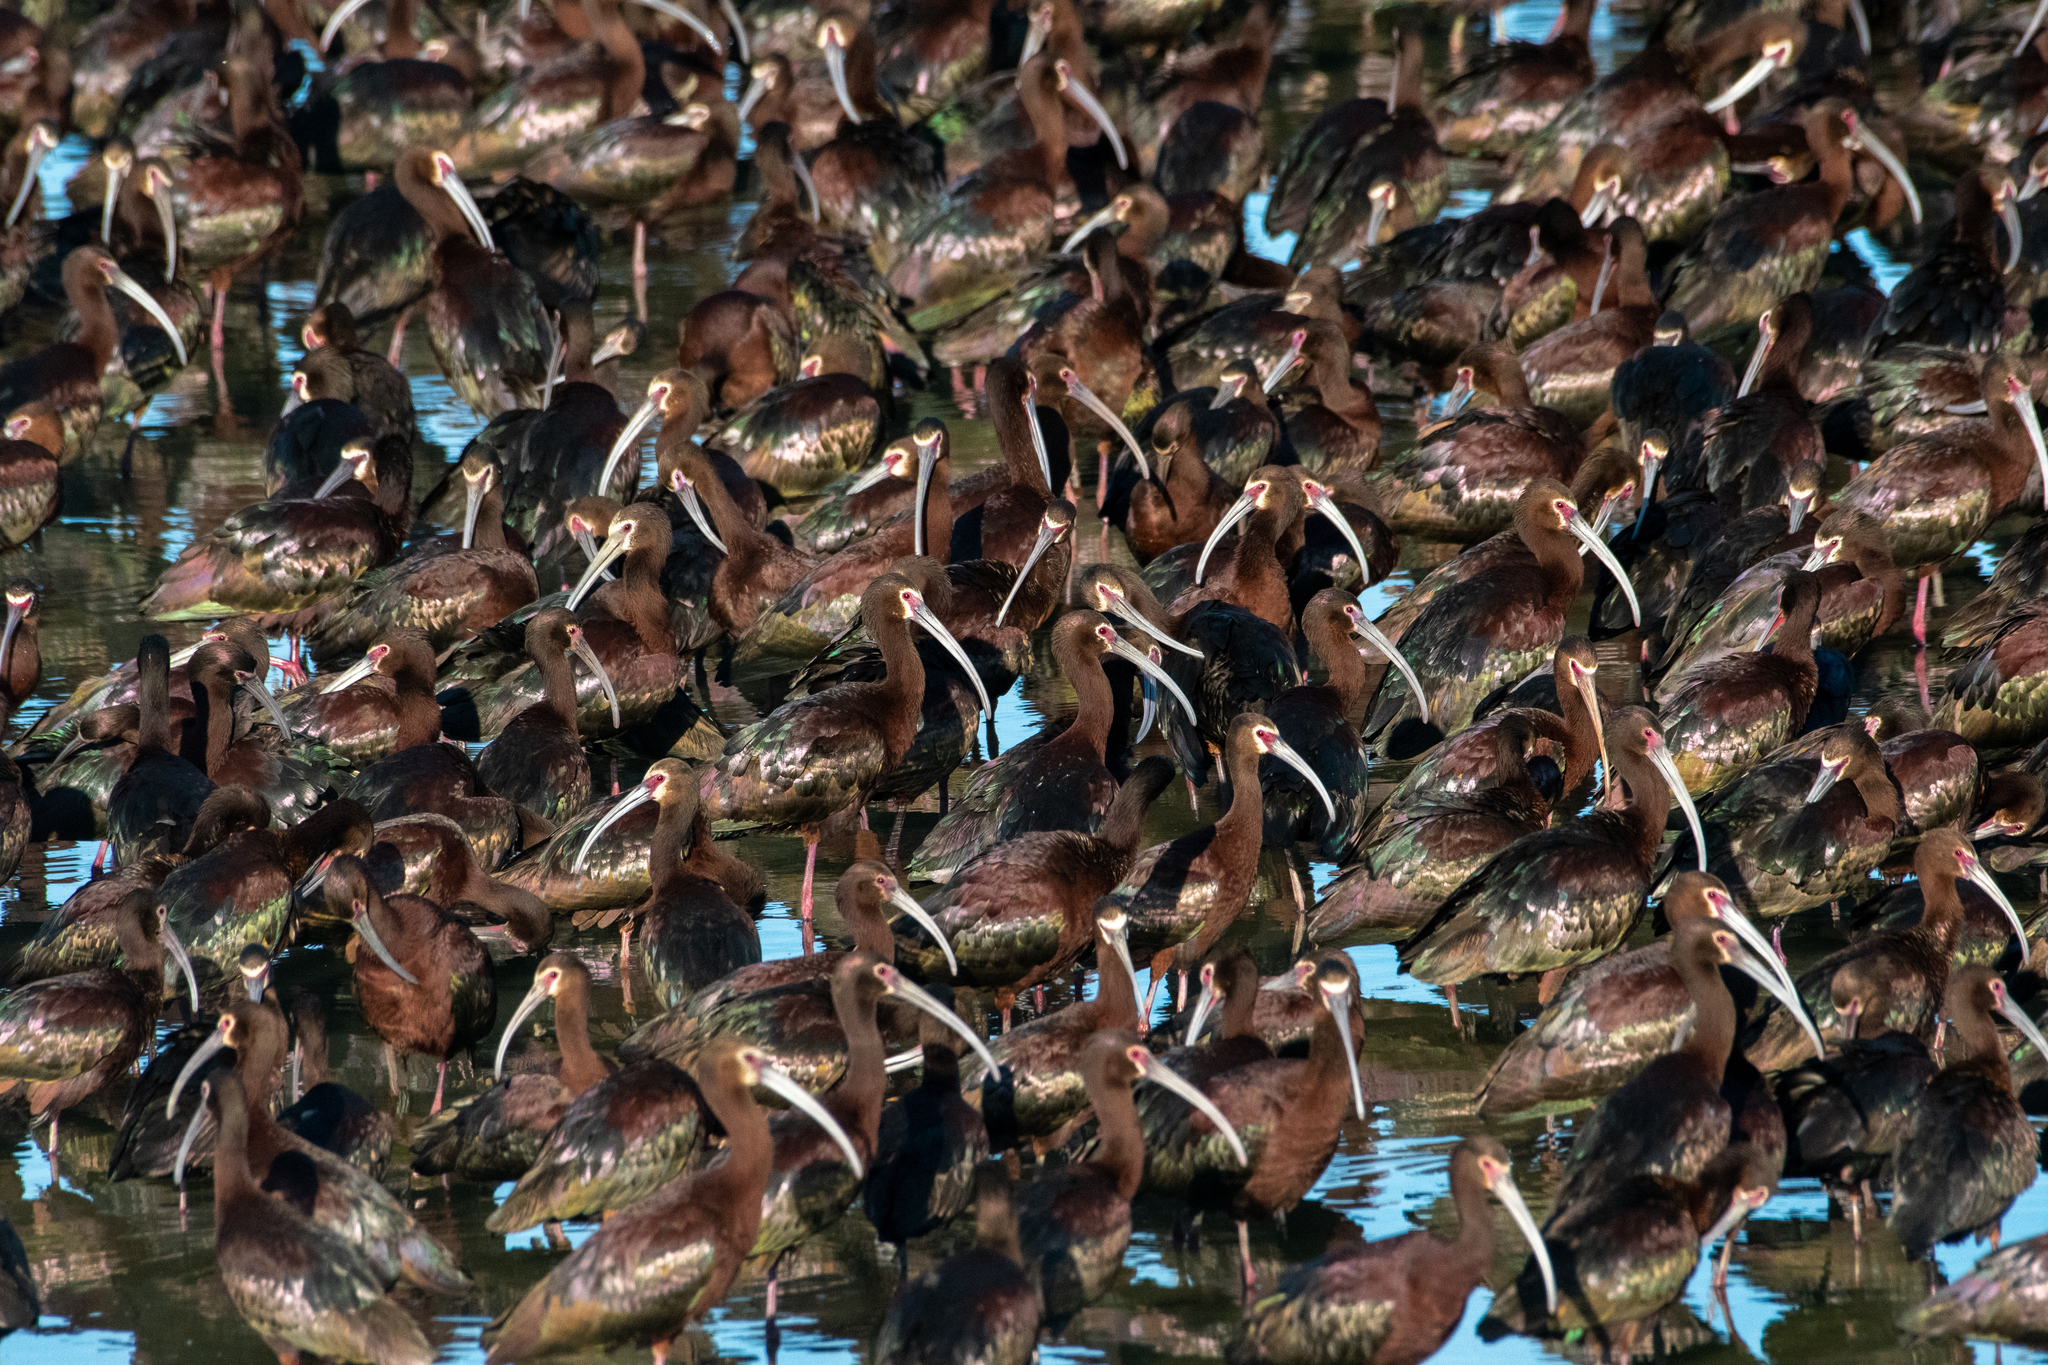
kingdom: Animalia
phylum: Chordata
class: Aves
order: Pelecaniformes
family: Threskiornithidae
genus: Plegadis
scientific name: Plegadis chihi
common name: White-faced ibis
